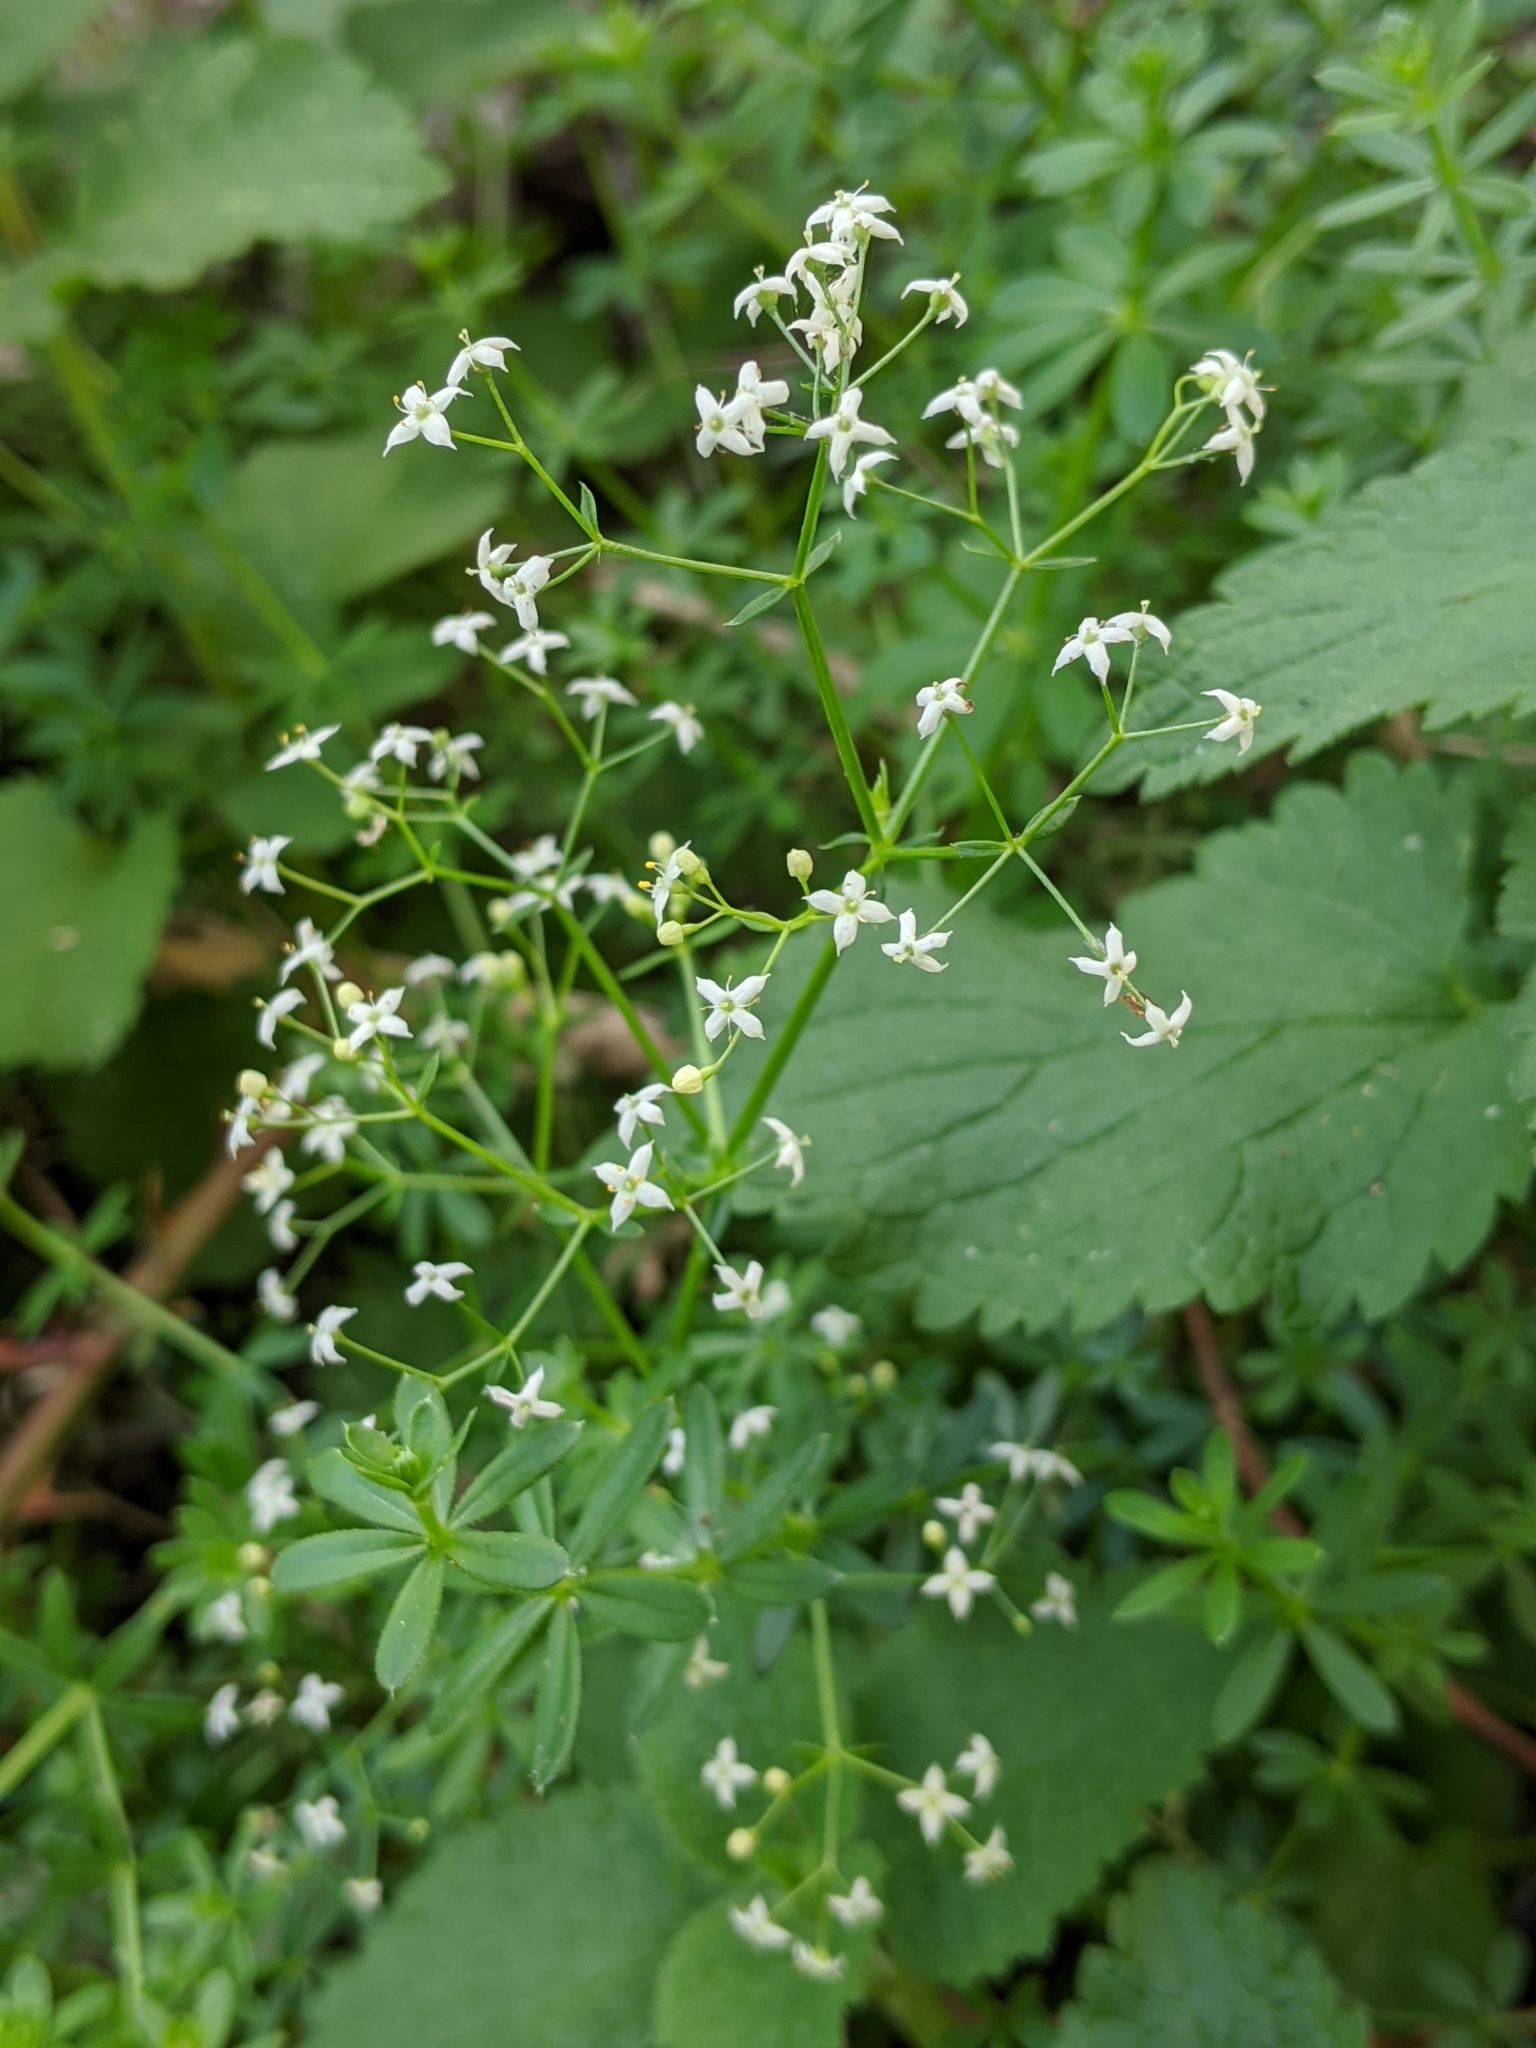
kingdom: Plantae
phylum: Tracheophyta
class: Magnoliopsida
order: Gentianales
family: Rubiaceae
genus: Galium
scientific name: Galium album
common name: White bedstraw
